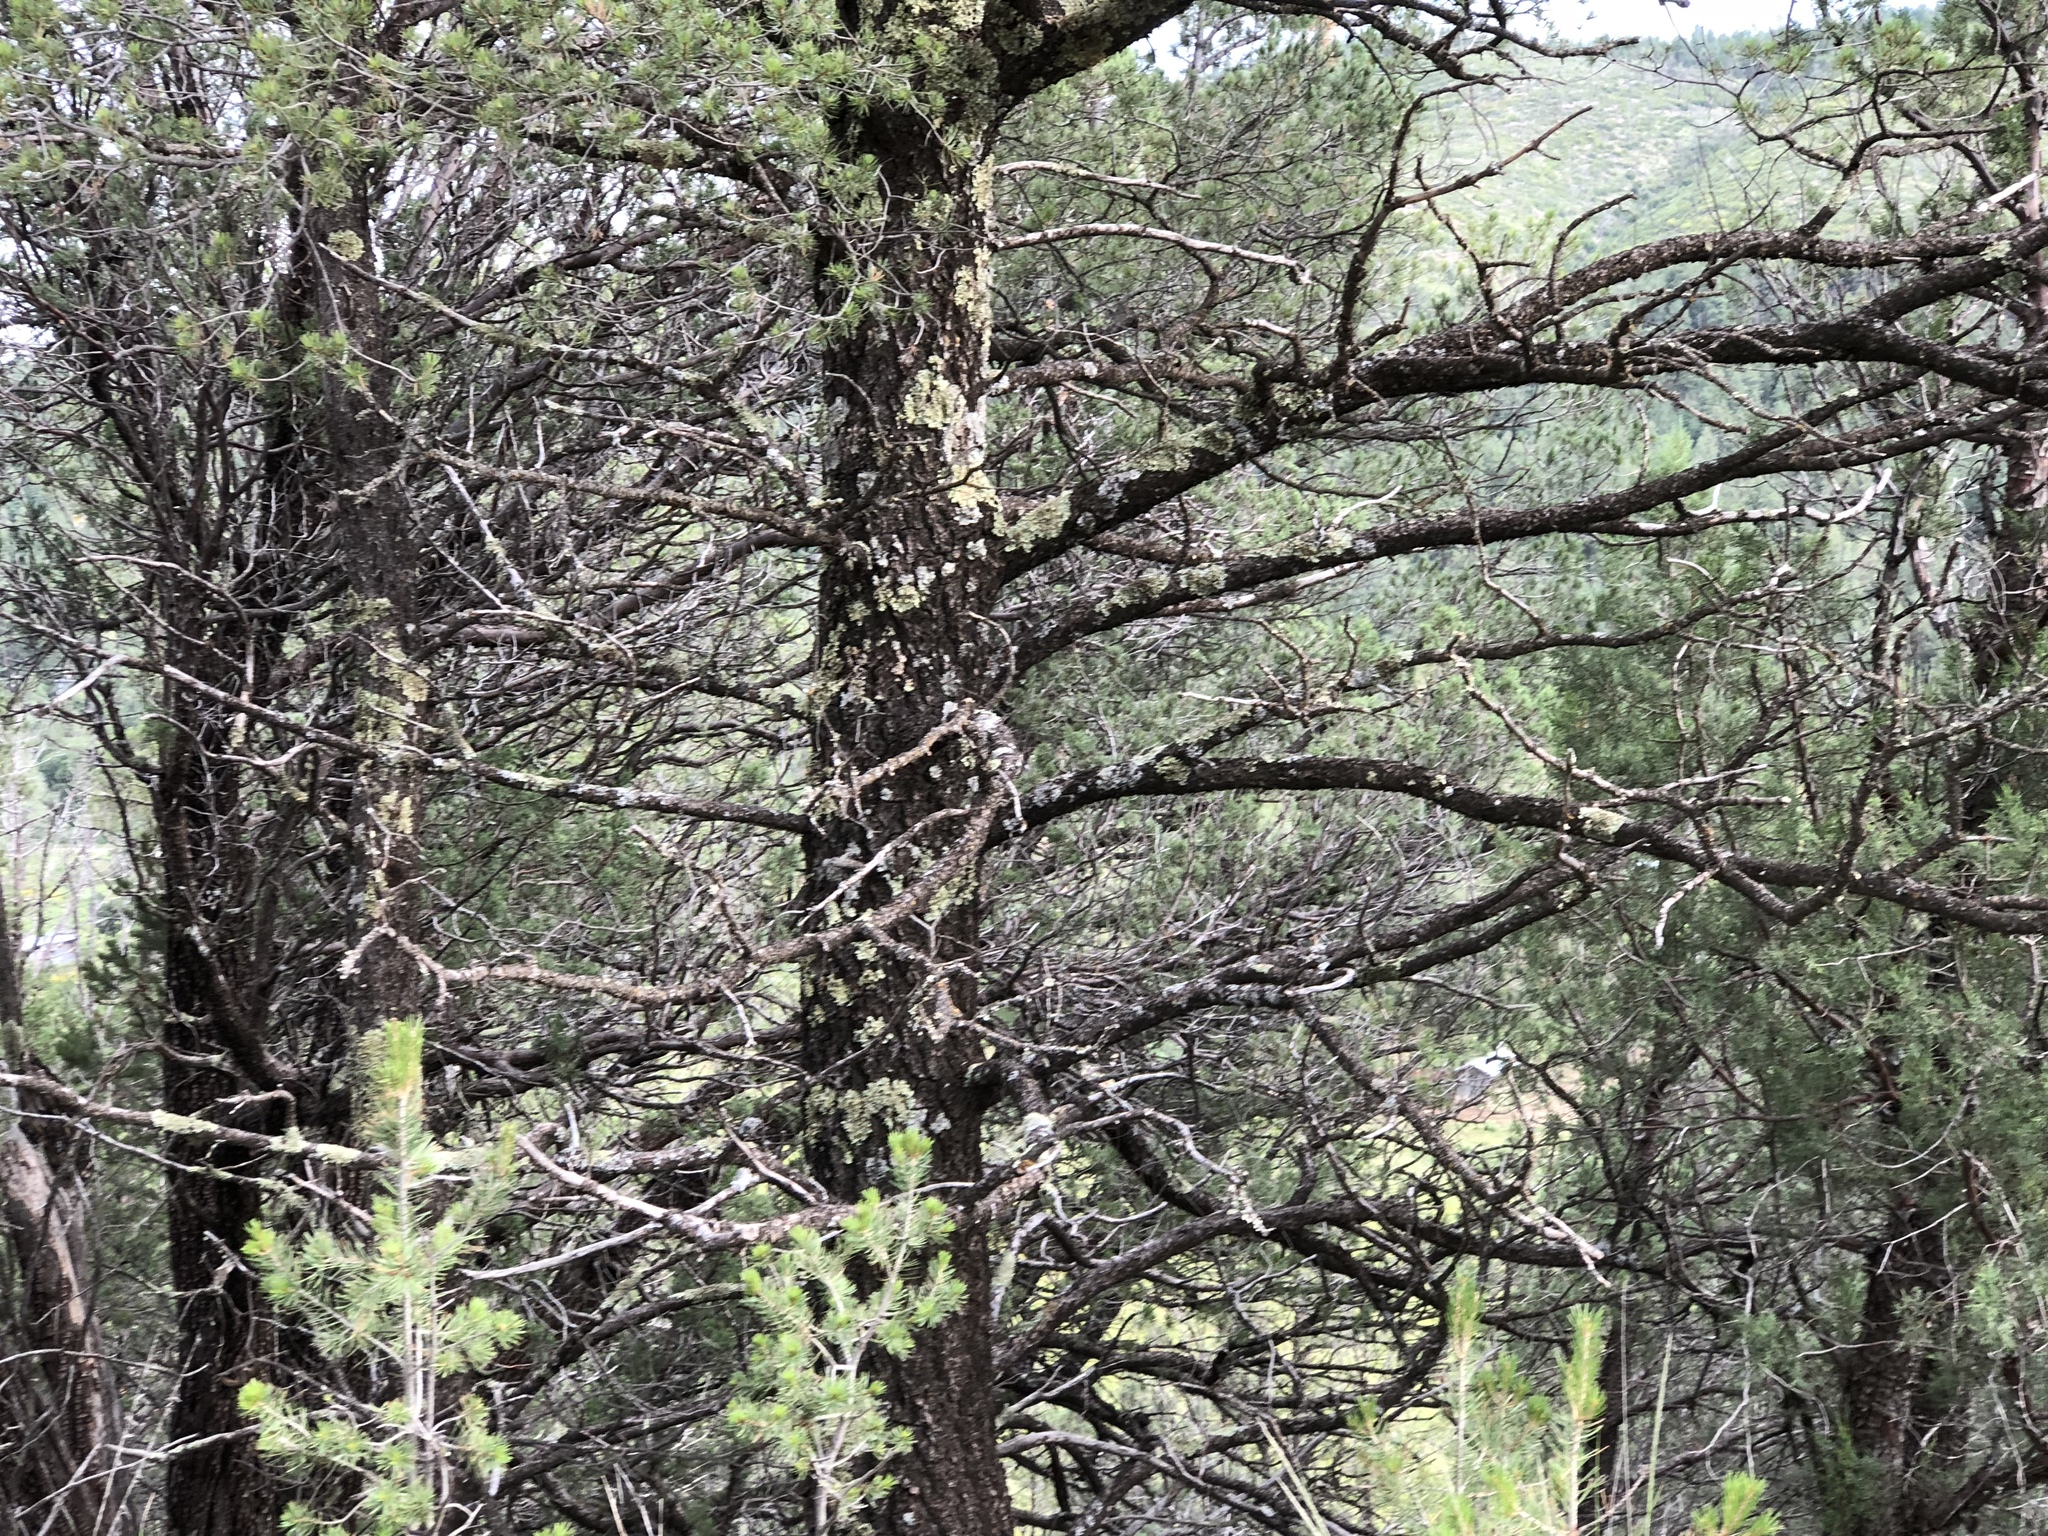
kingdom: Plantae
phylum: Tracheophyta
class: Pinopsida
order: Pinales
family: Pinaceae
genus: Pinus
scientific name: Pinus edulis
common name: Colorado pinyon
